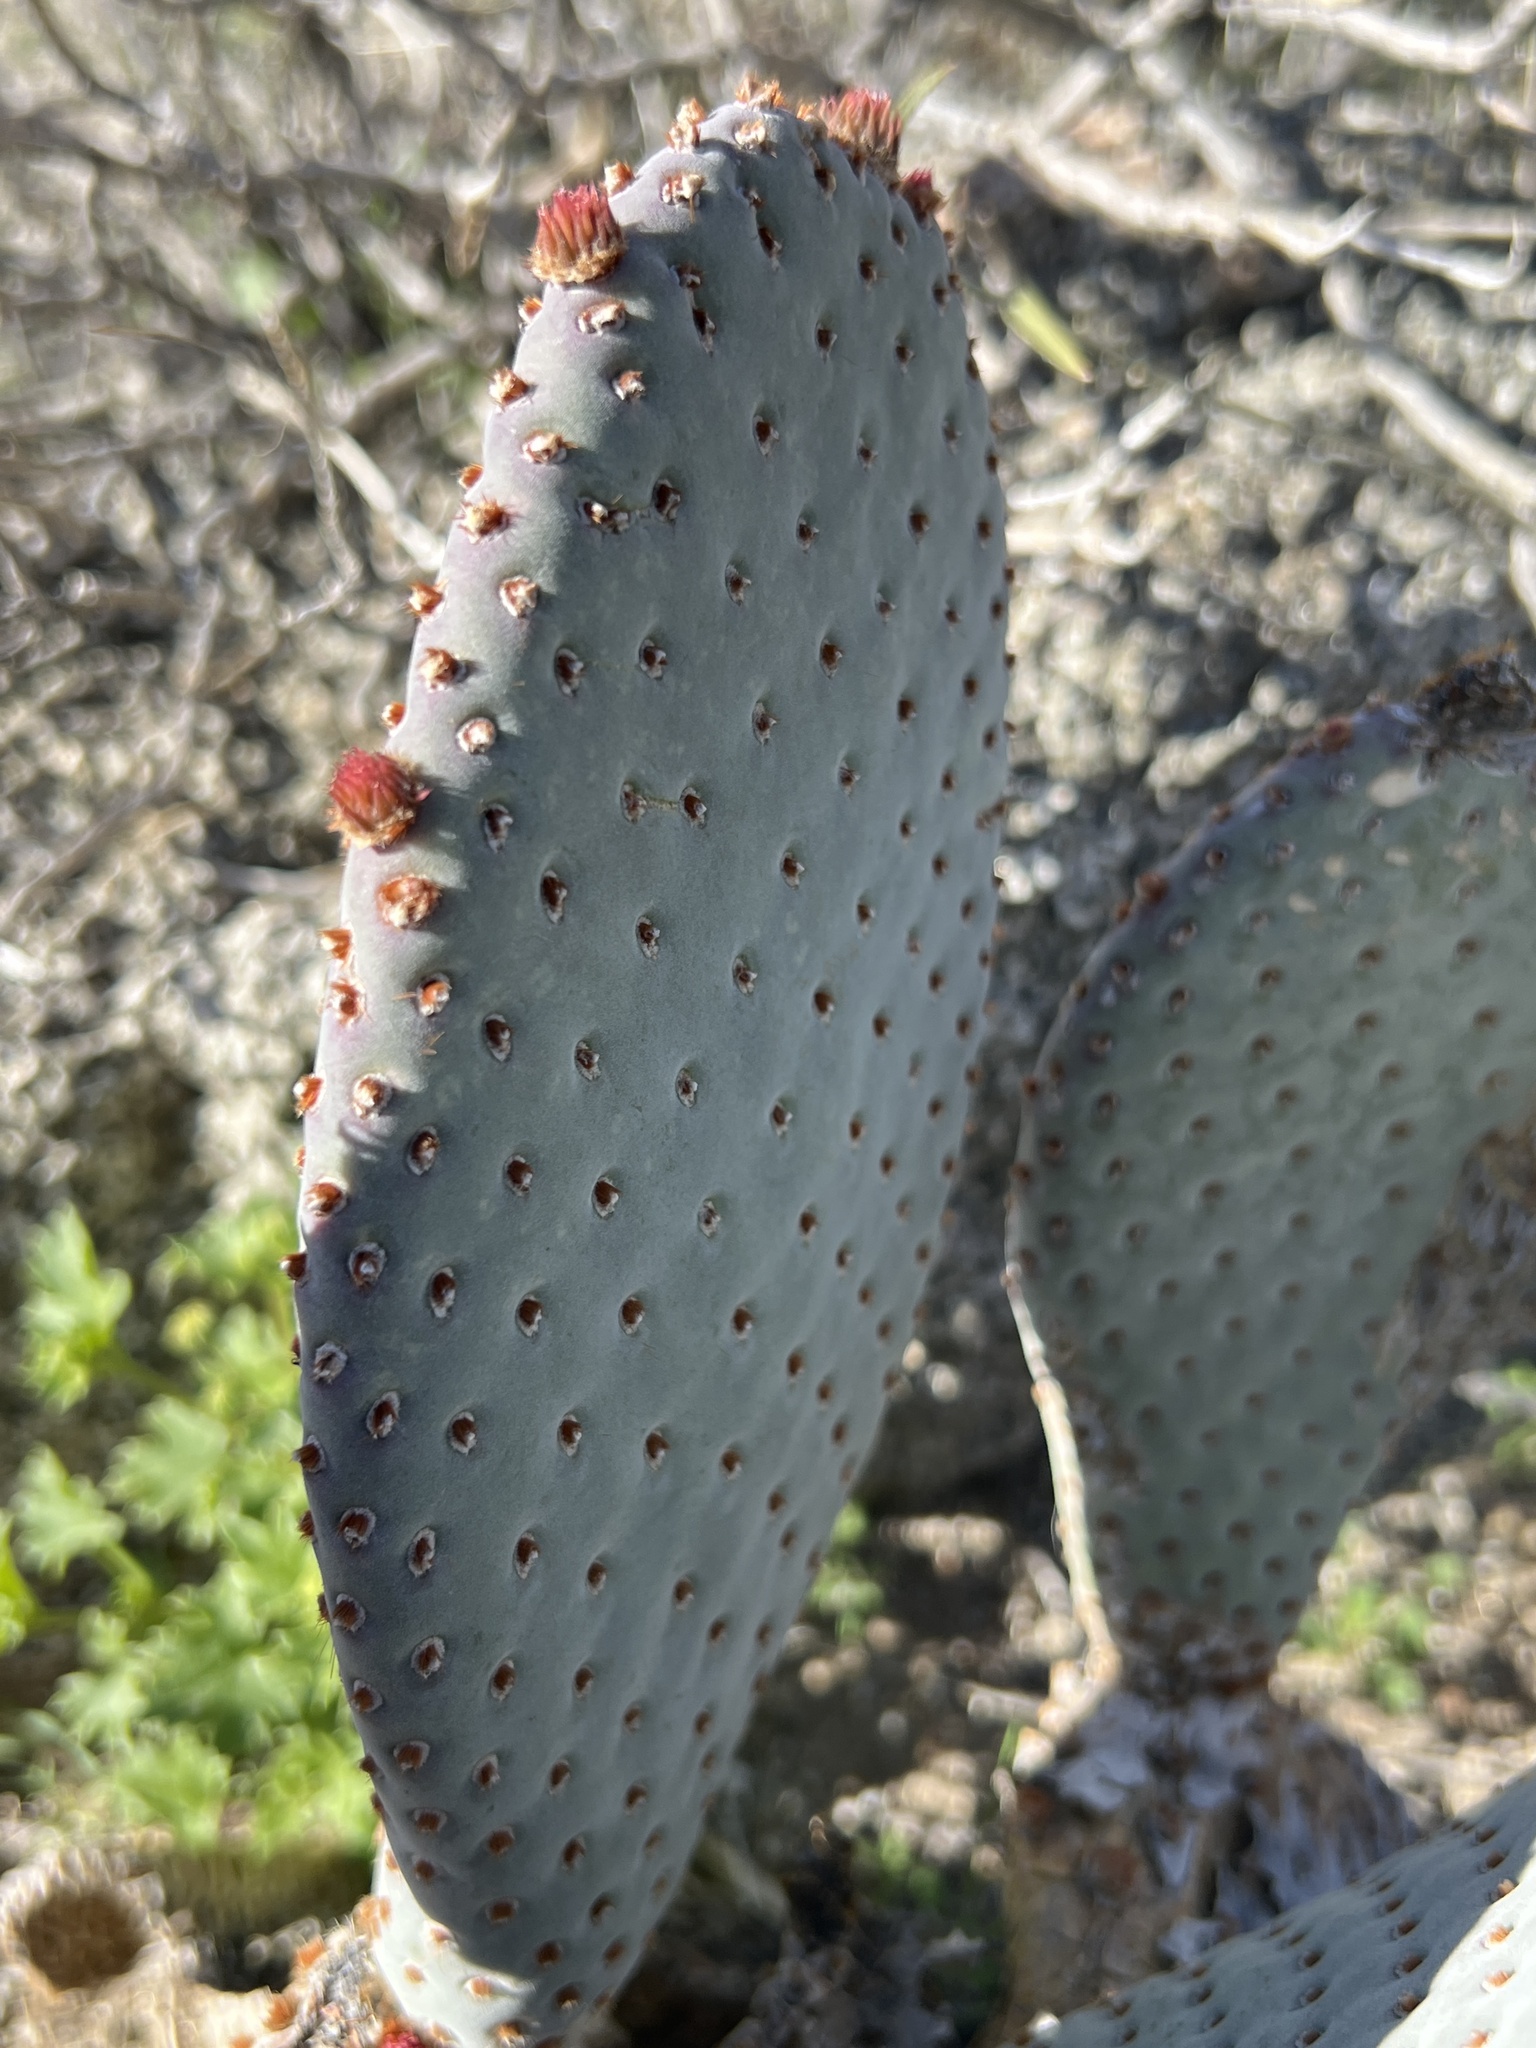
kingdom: Plantae
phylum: Tracheophyta
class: Magnoliopsida
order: Caryophyllales
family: Cactaceae
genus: Opuntia
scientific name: Opuntia basilaris
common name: Beavertail prickly-pear
